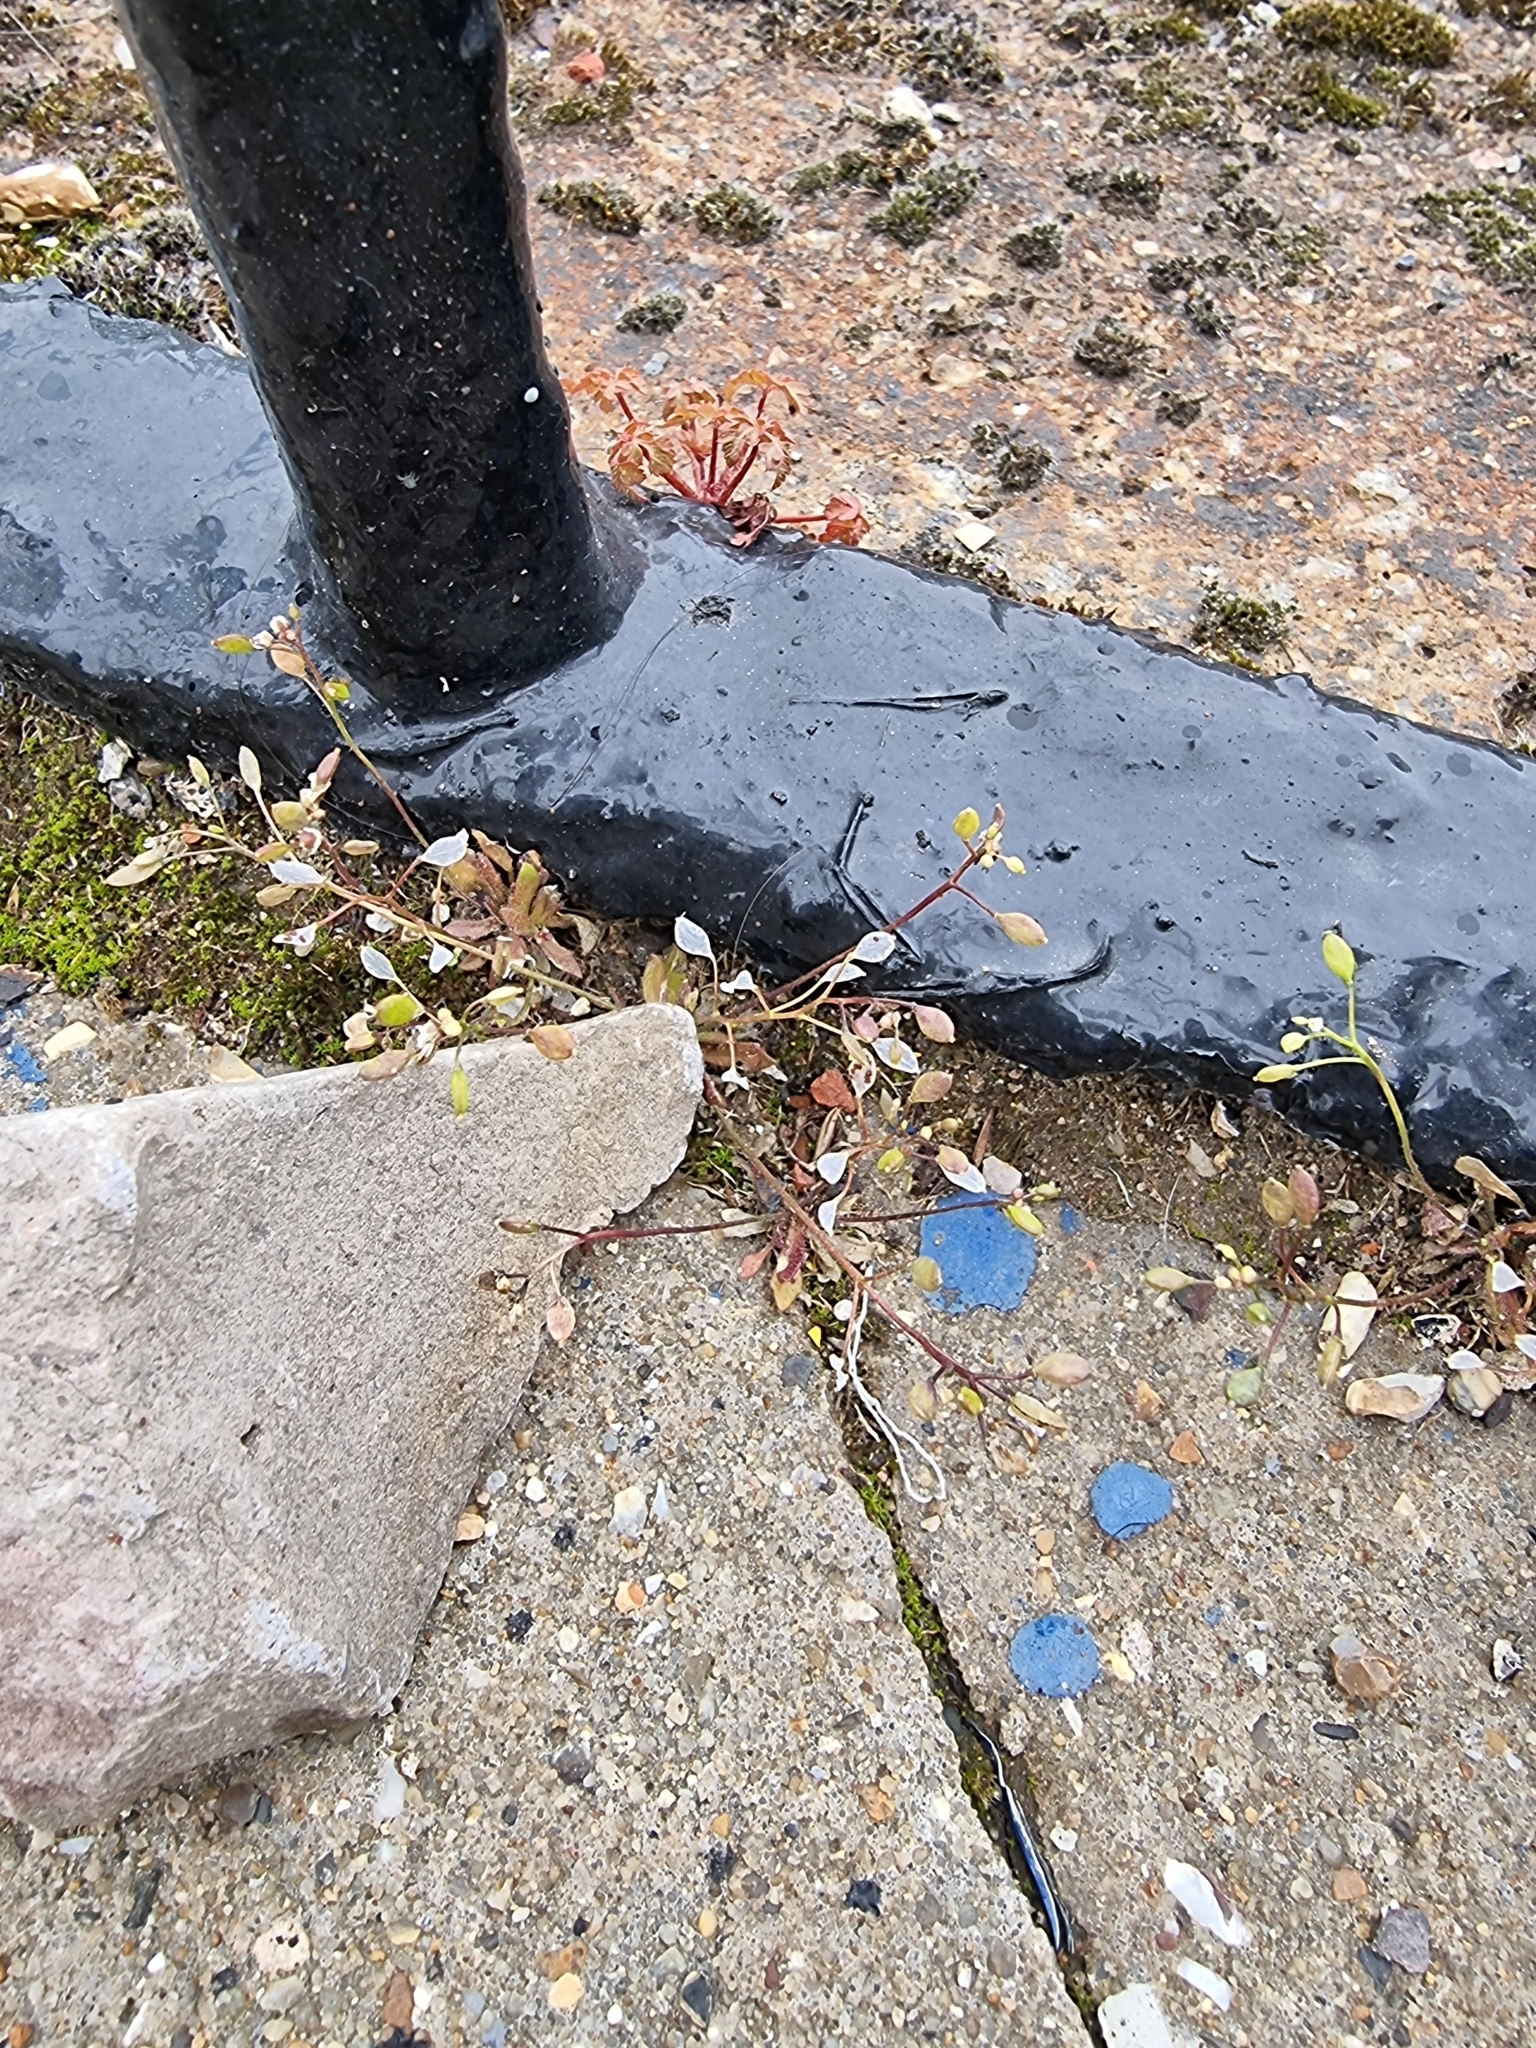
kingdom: Plantae
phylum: Tracheophyta
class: Magnoliopsida
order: Brassicales
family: Brassicaceae
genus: Draba
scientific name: Draba verna
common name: Spring draba
